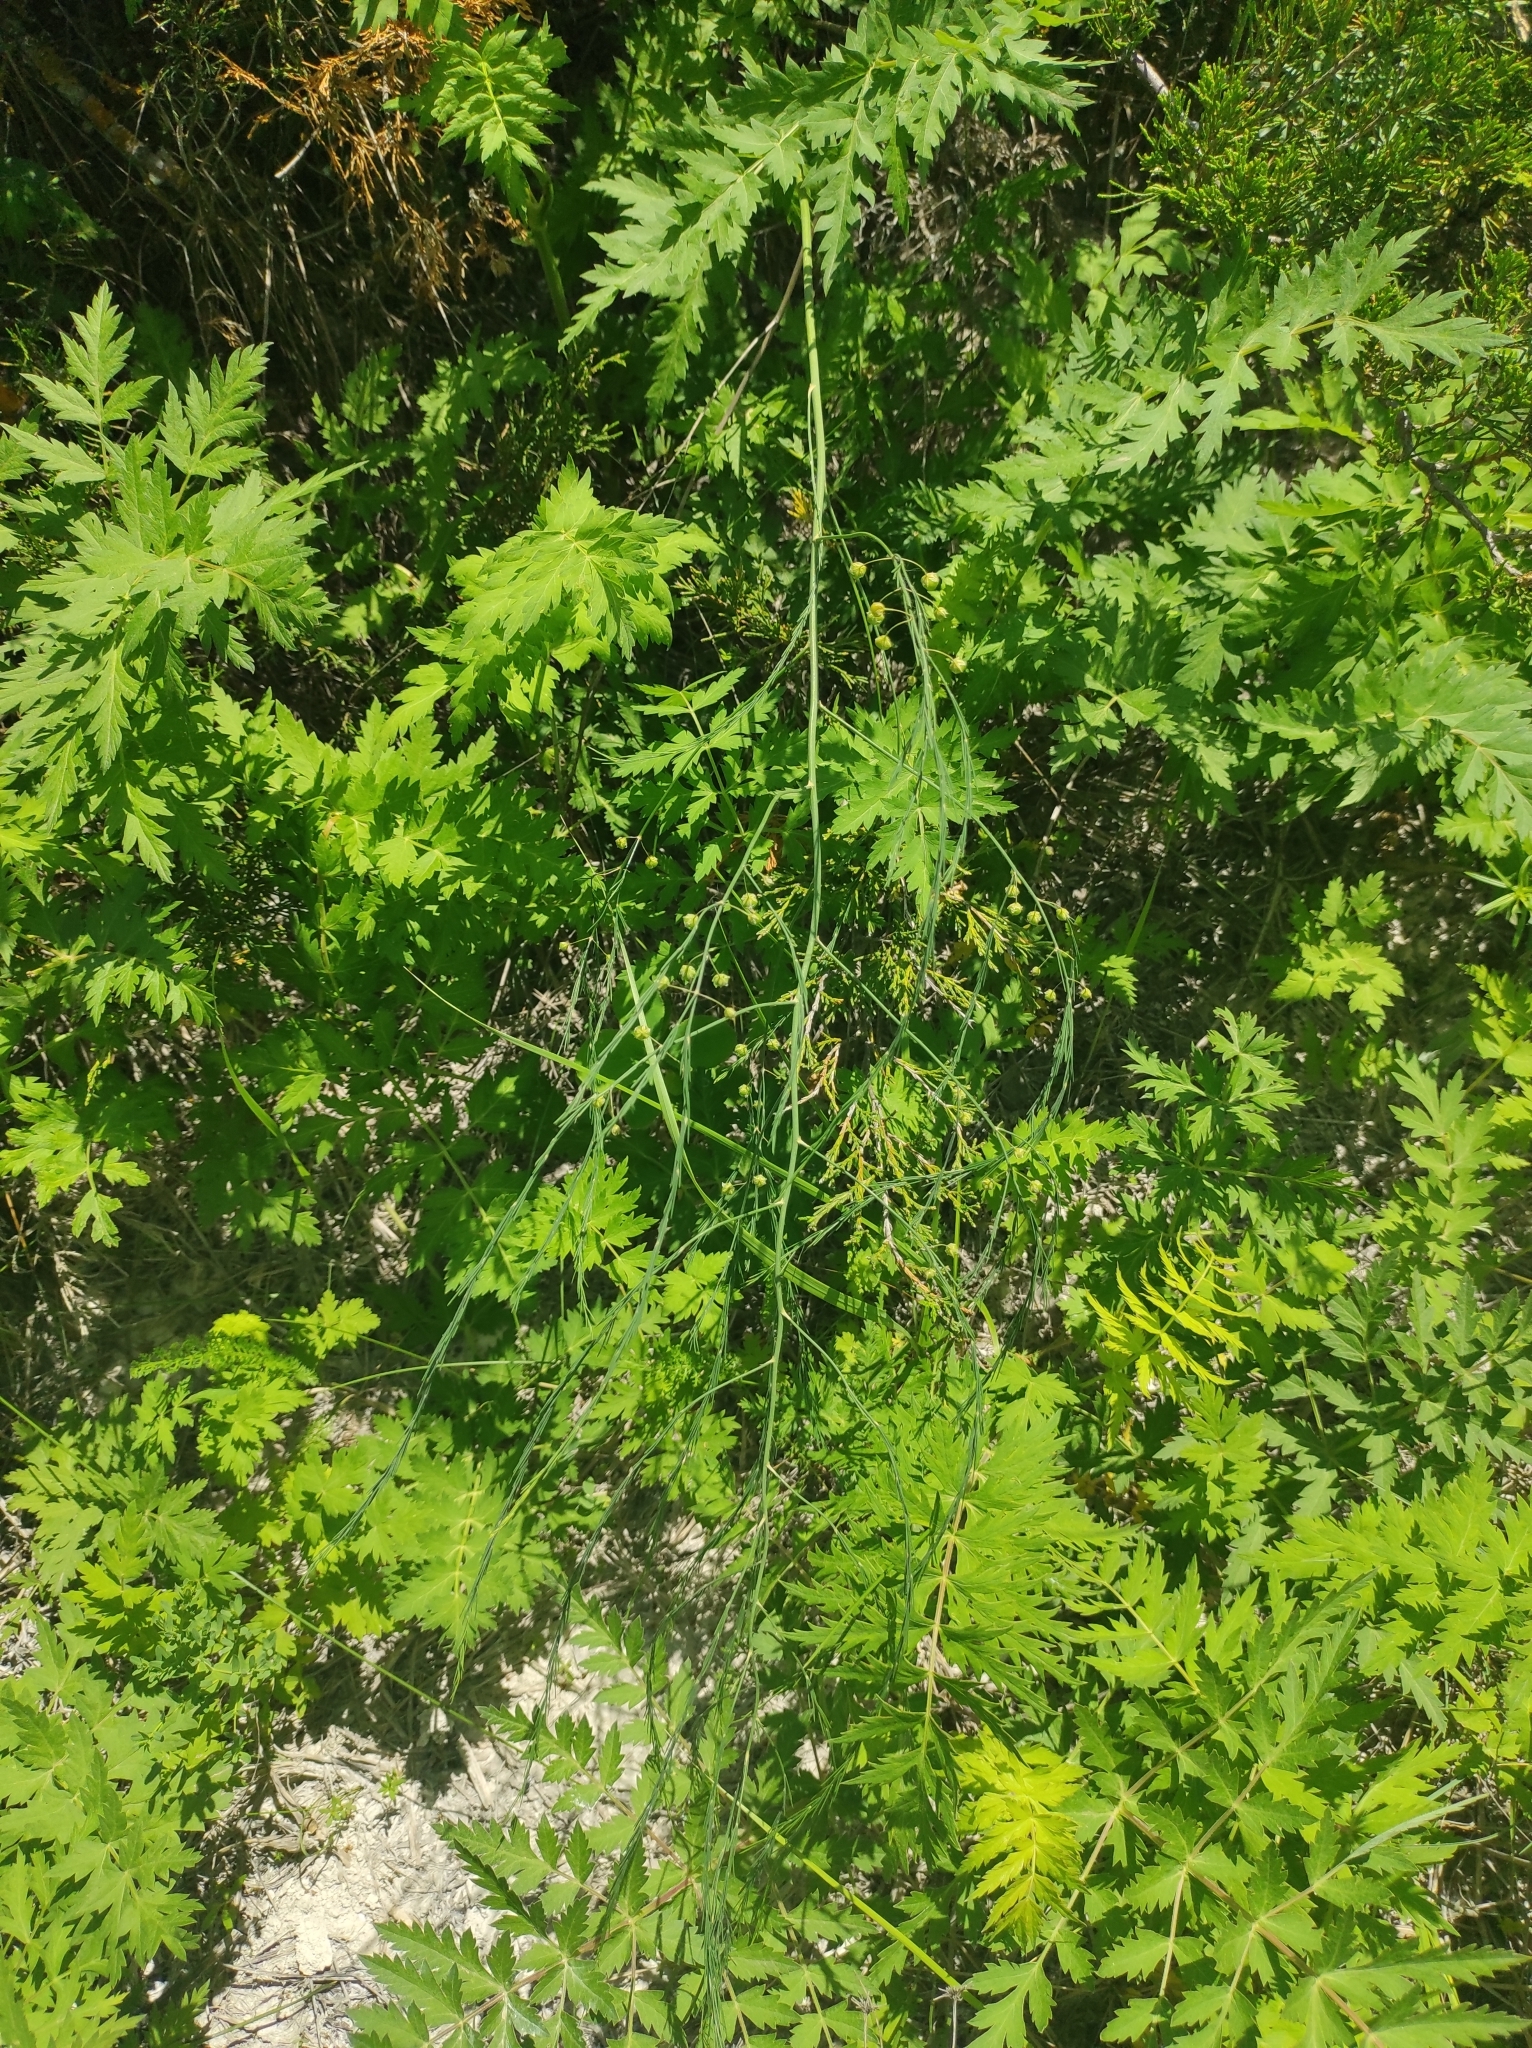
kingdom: Plantae
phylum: Tracheophyta
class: Liliopsida
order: Asparagales
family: Asparagaceae
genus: Asparagus
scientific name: Asparagus officinalis
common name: Garden asparagus
